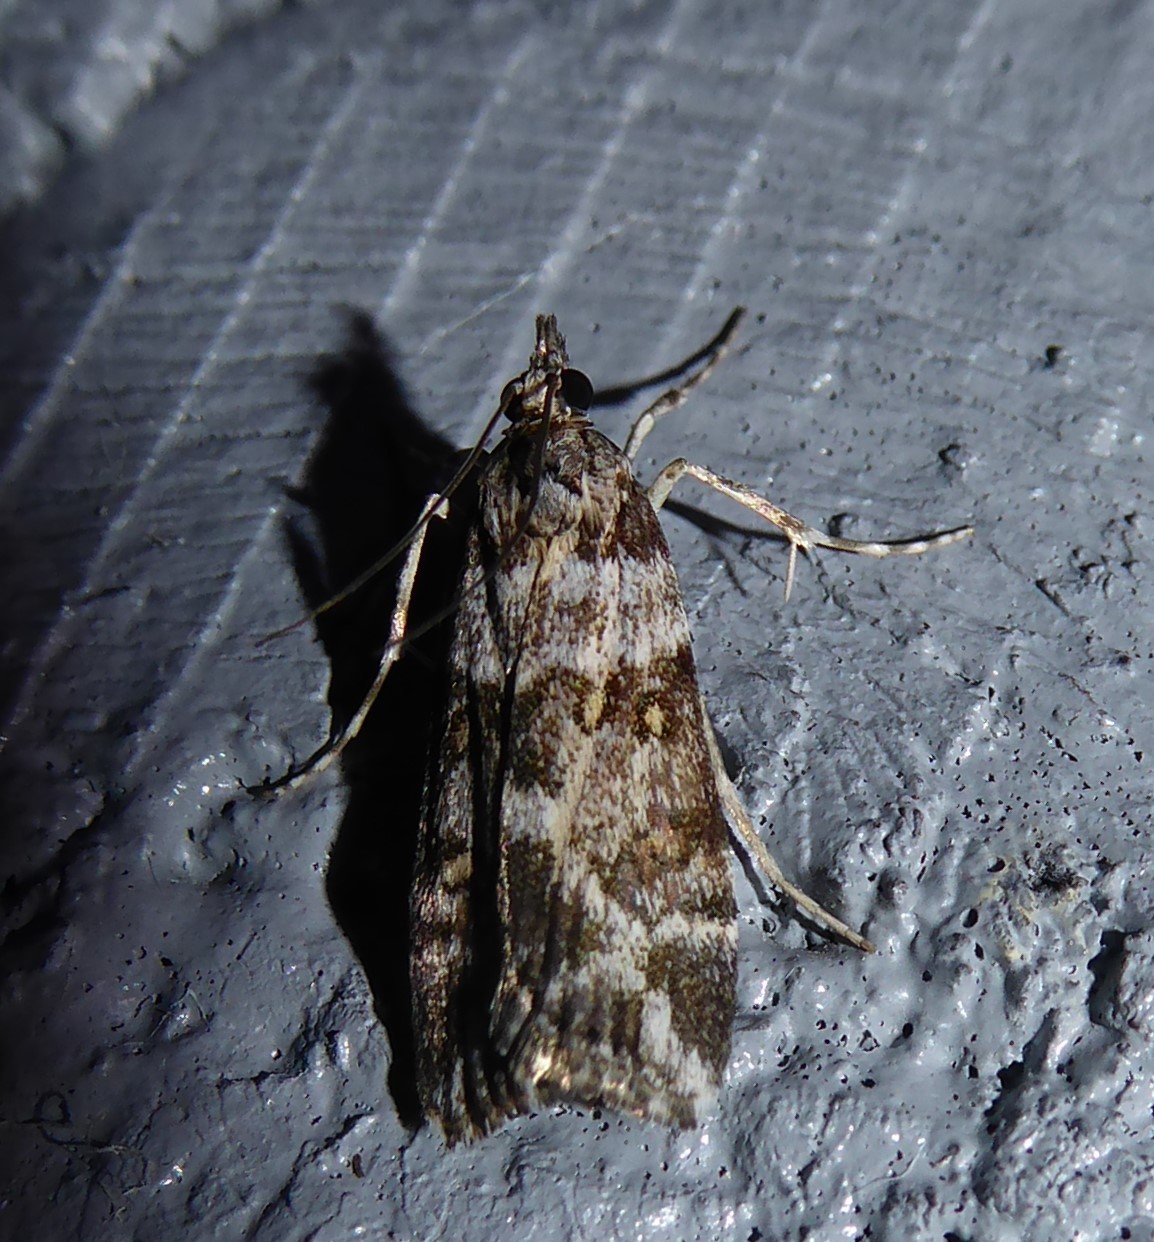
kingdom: Animalia
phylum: Arthropoda
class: Insecta
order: Lepidoptera
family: Crambidae
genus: Eudonia
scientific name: Eudonia diphtheralis
